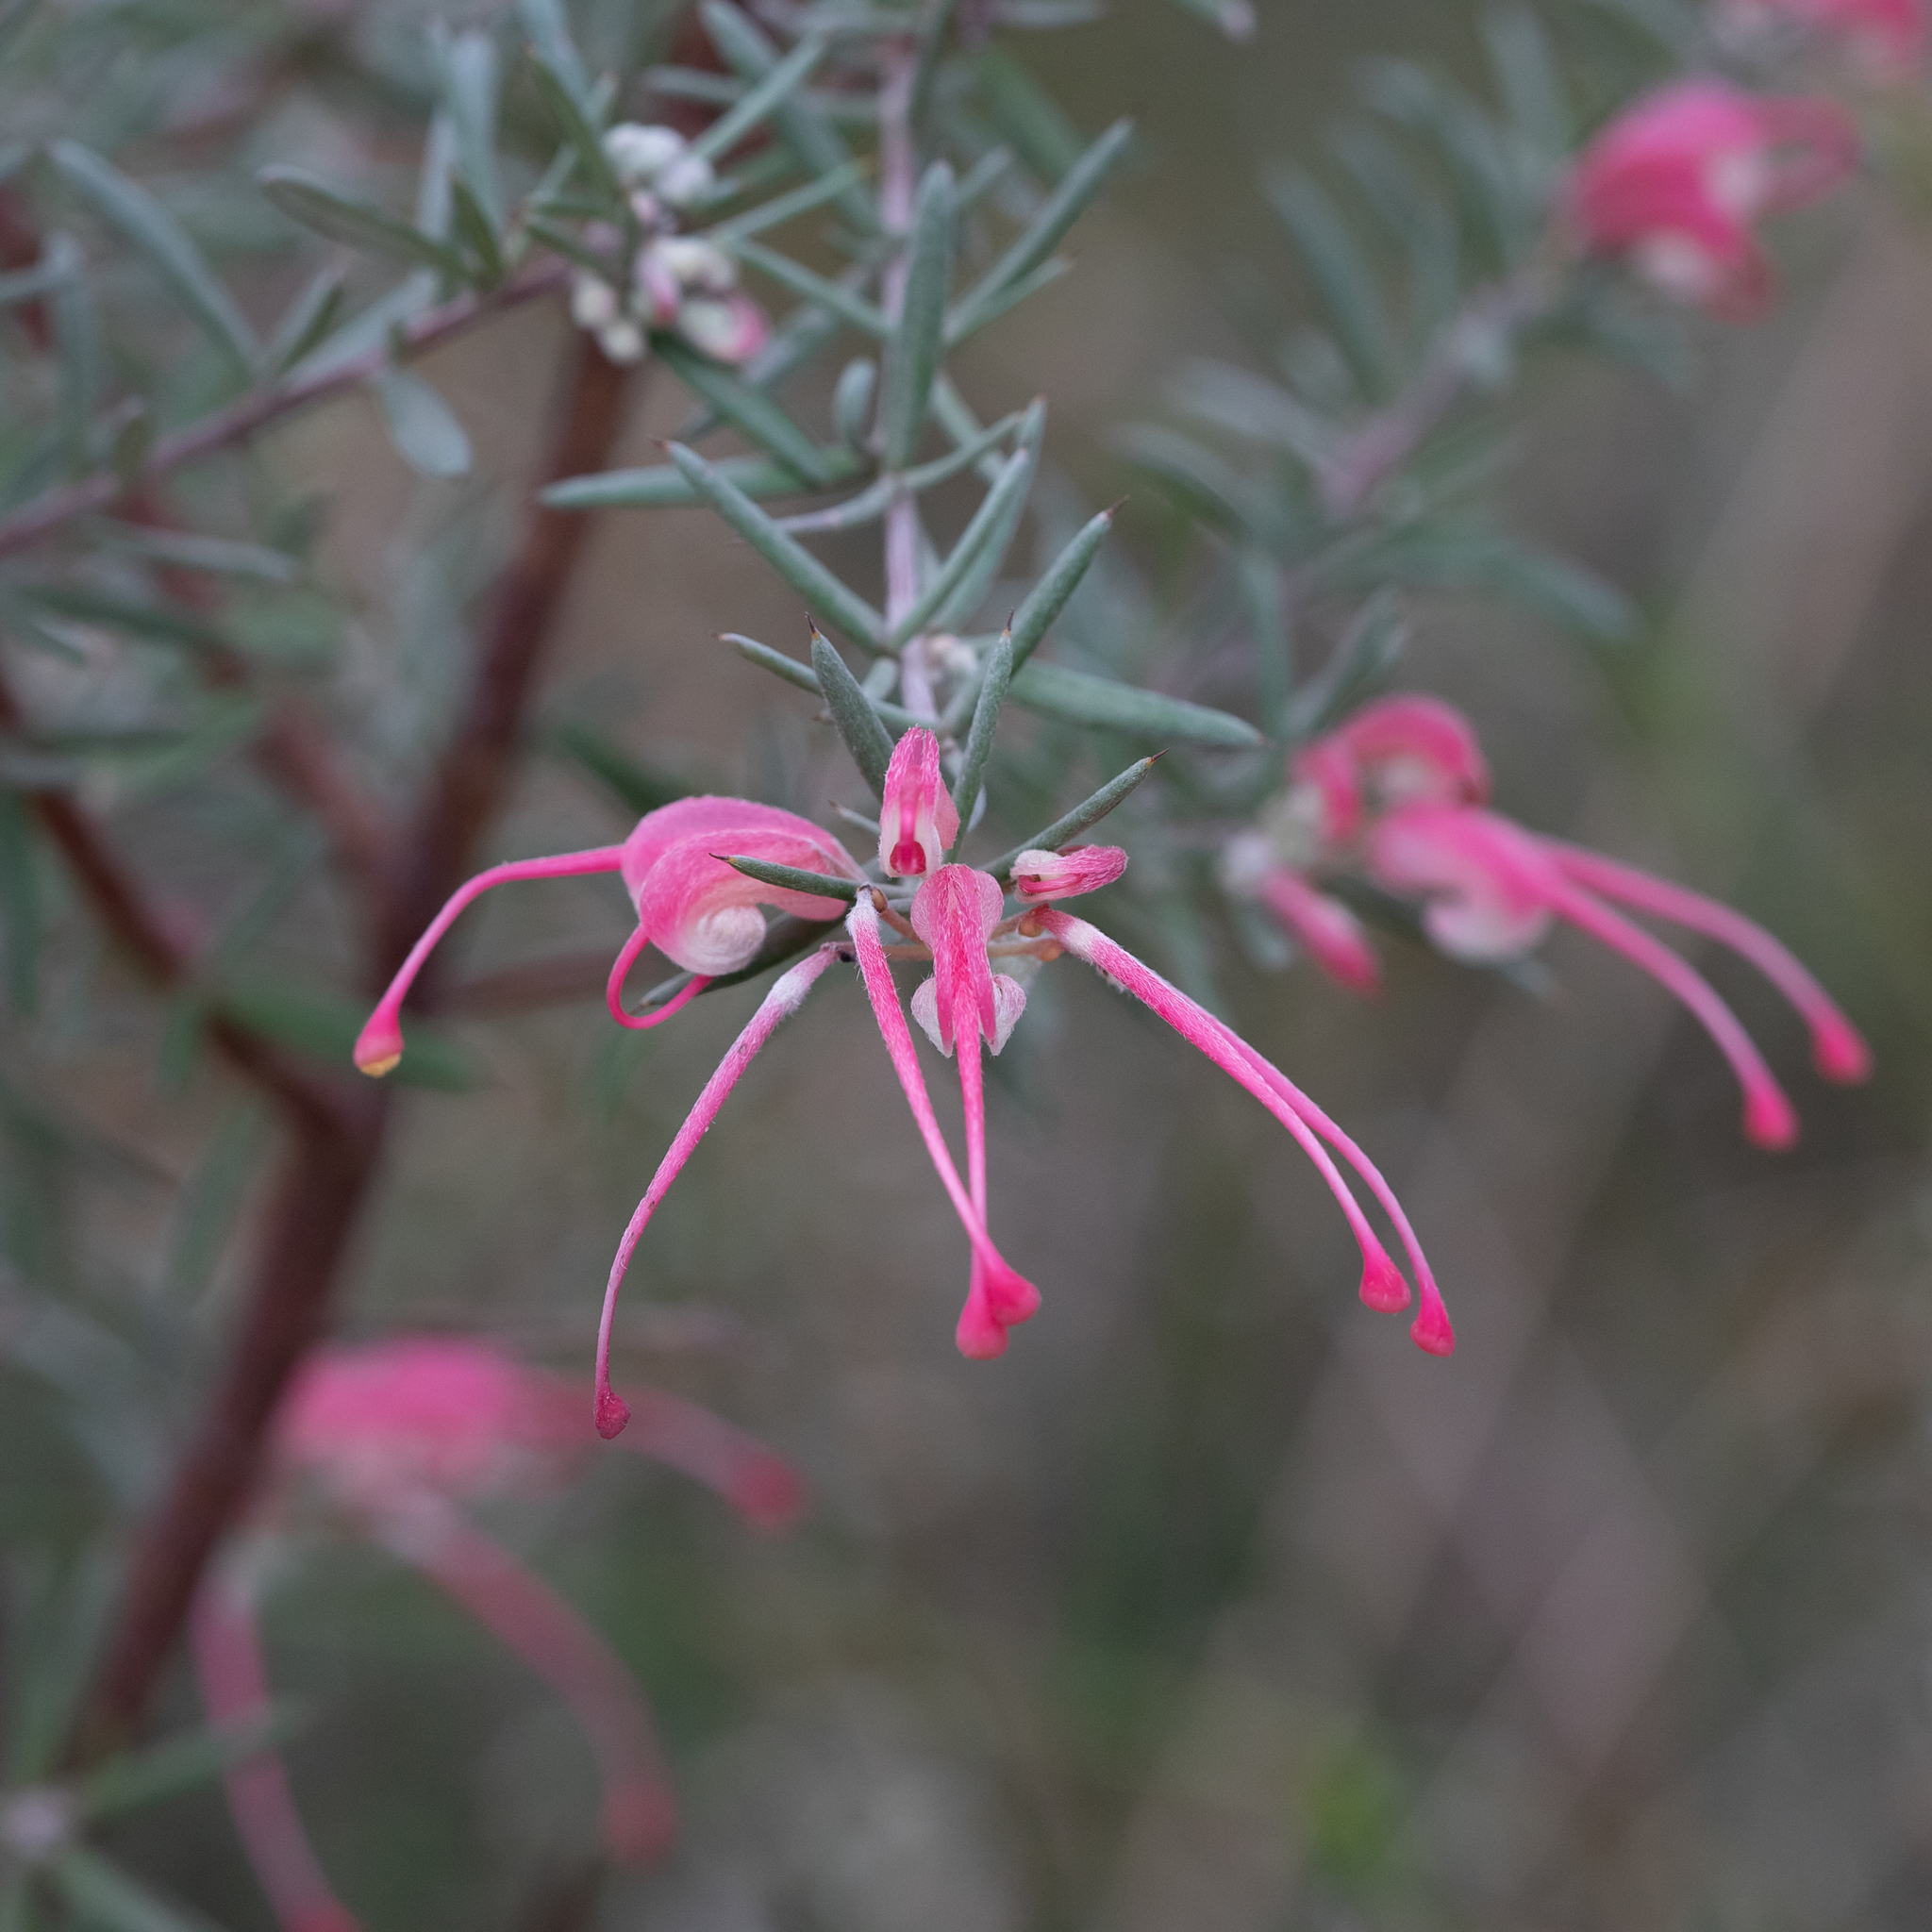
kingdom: Plantae
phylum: Tracheophyta
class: Magnoliopsida
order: Proteales
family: Proteaceae
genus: Grevillea
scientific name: Grevillea lavandulacea
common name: Lavender grevillea
